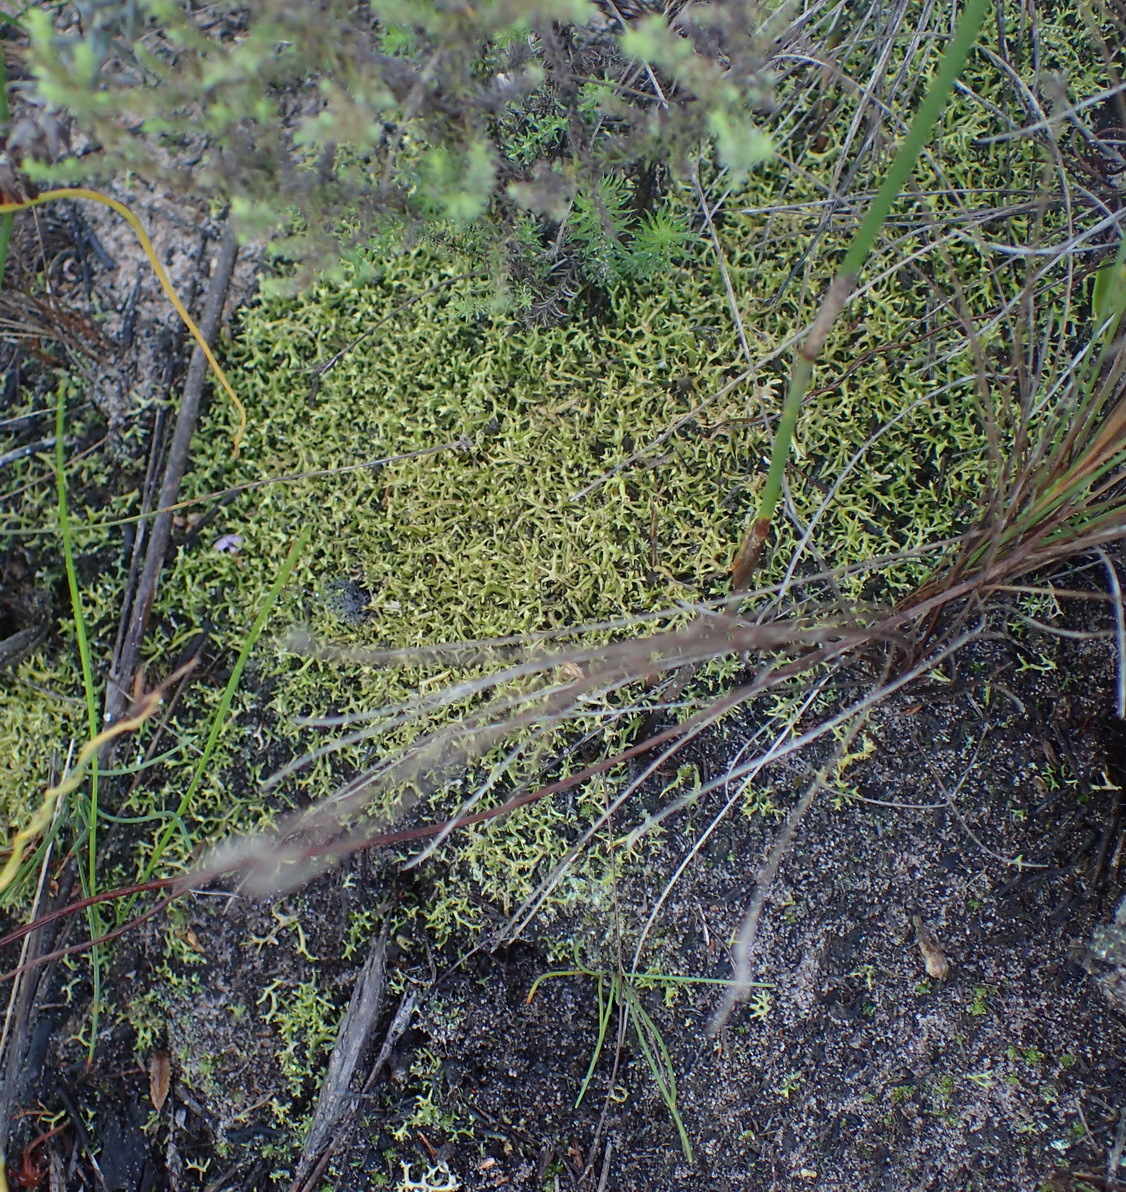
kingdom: Fungi
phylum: Ascomycota
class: Lecanoromycetes
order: Lecanorales
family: Cladoniaceae
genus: Cladia
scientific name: Cladia aggregata
